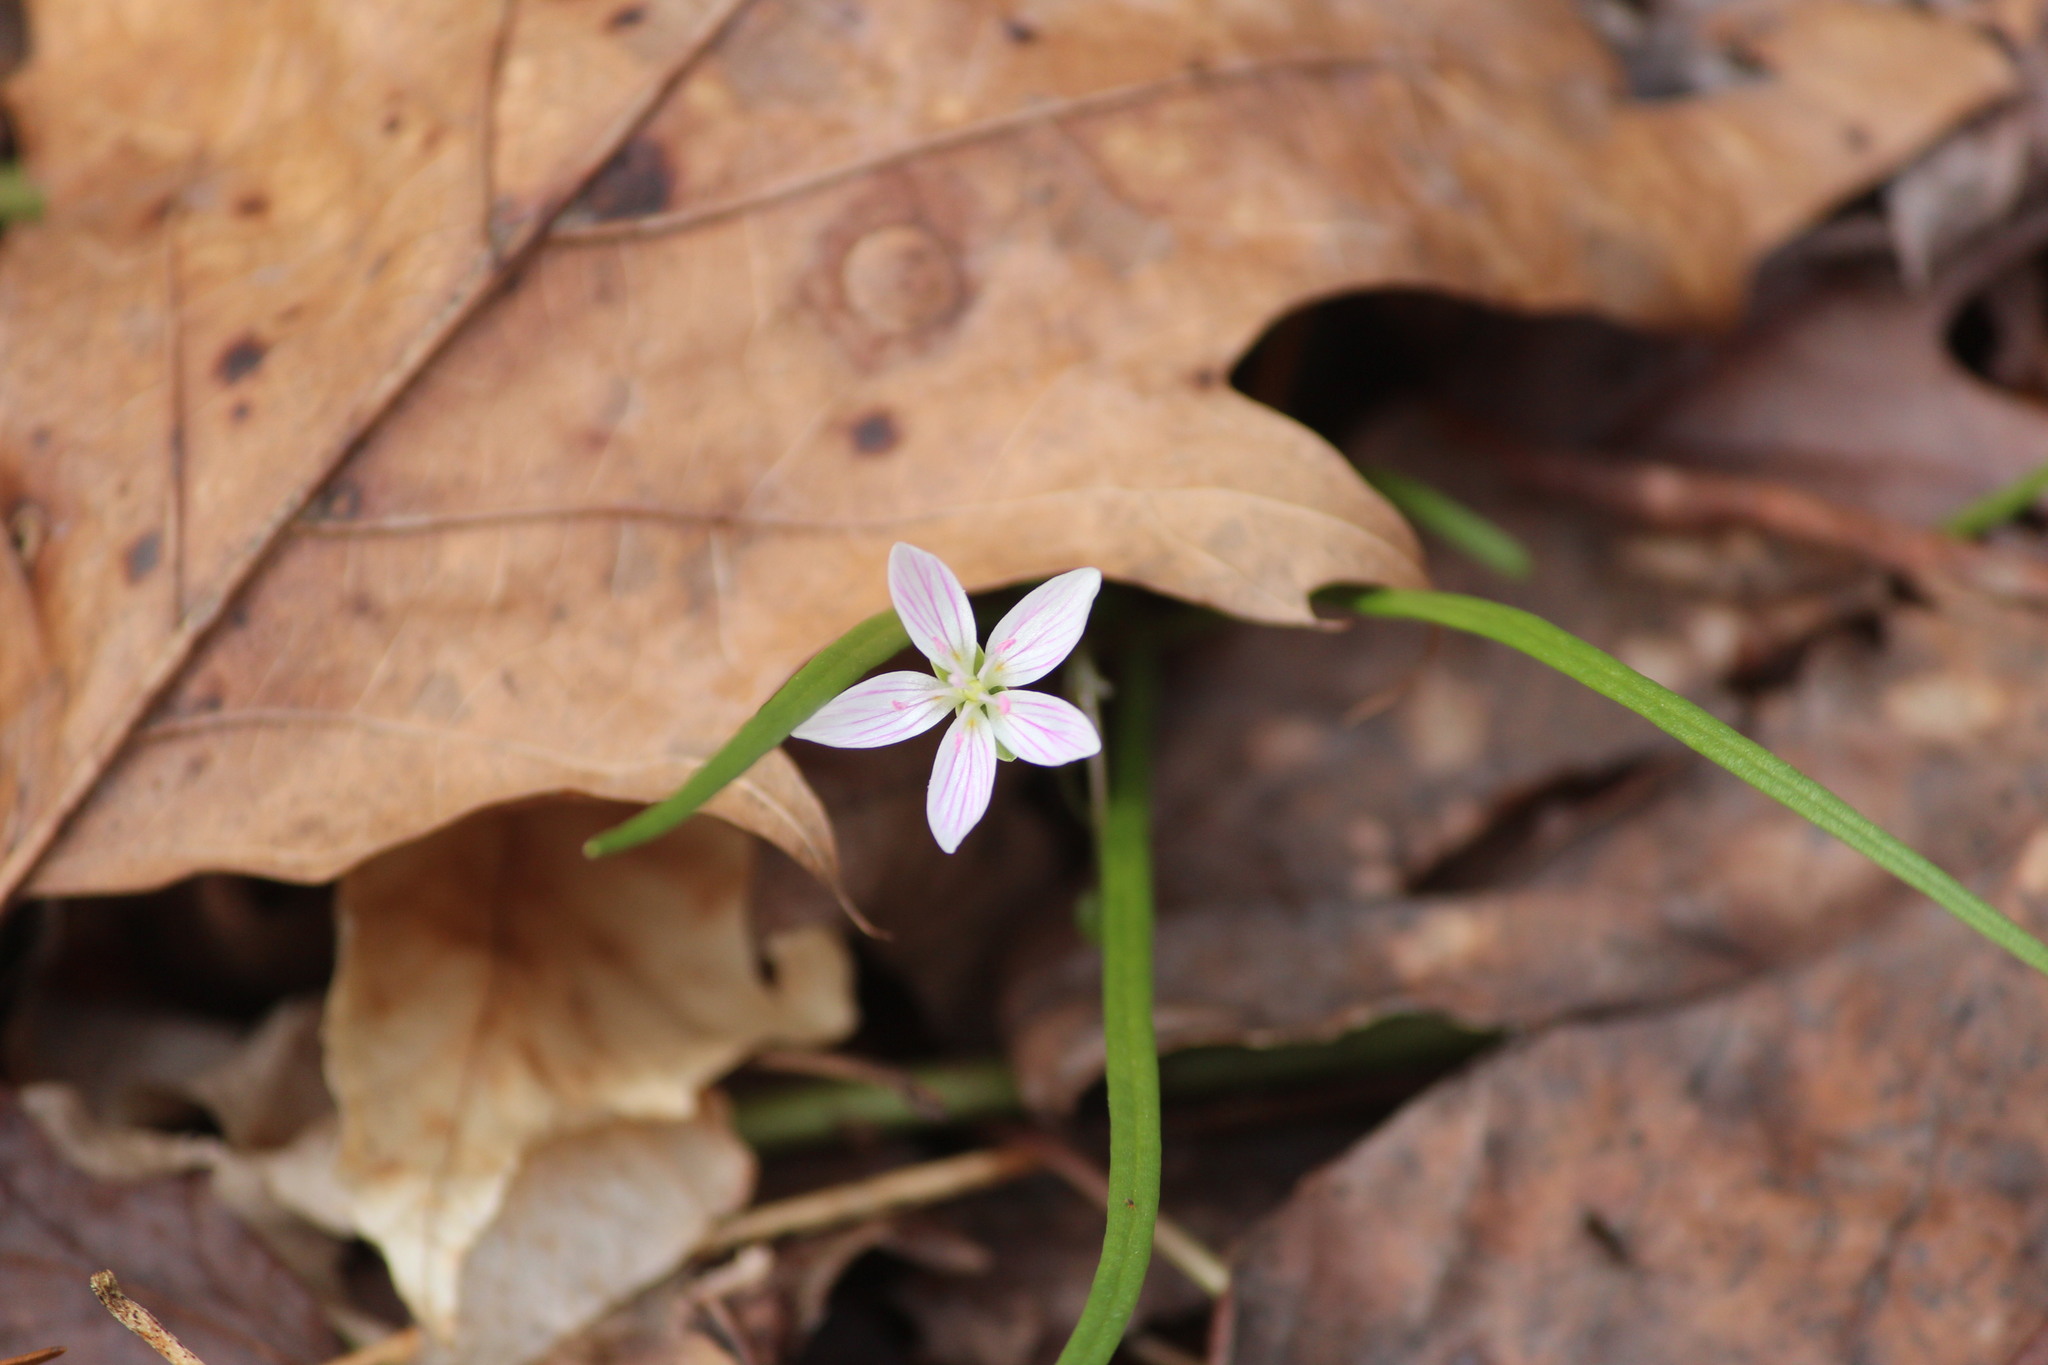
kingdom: Plantae
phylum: Tracheophyta
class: Magnoliopsida
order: Caryophyllales
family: Montiaceae
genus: Claytonia
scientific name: Claytonia virginica
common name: Virginia springbeauty
